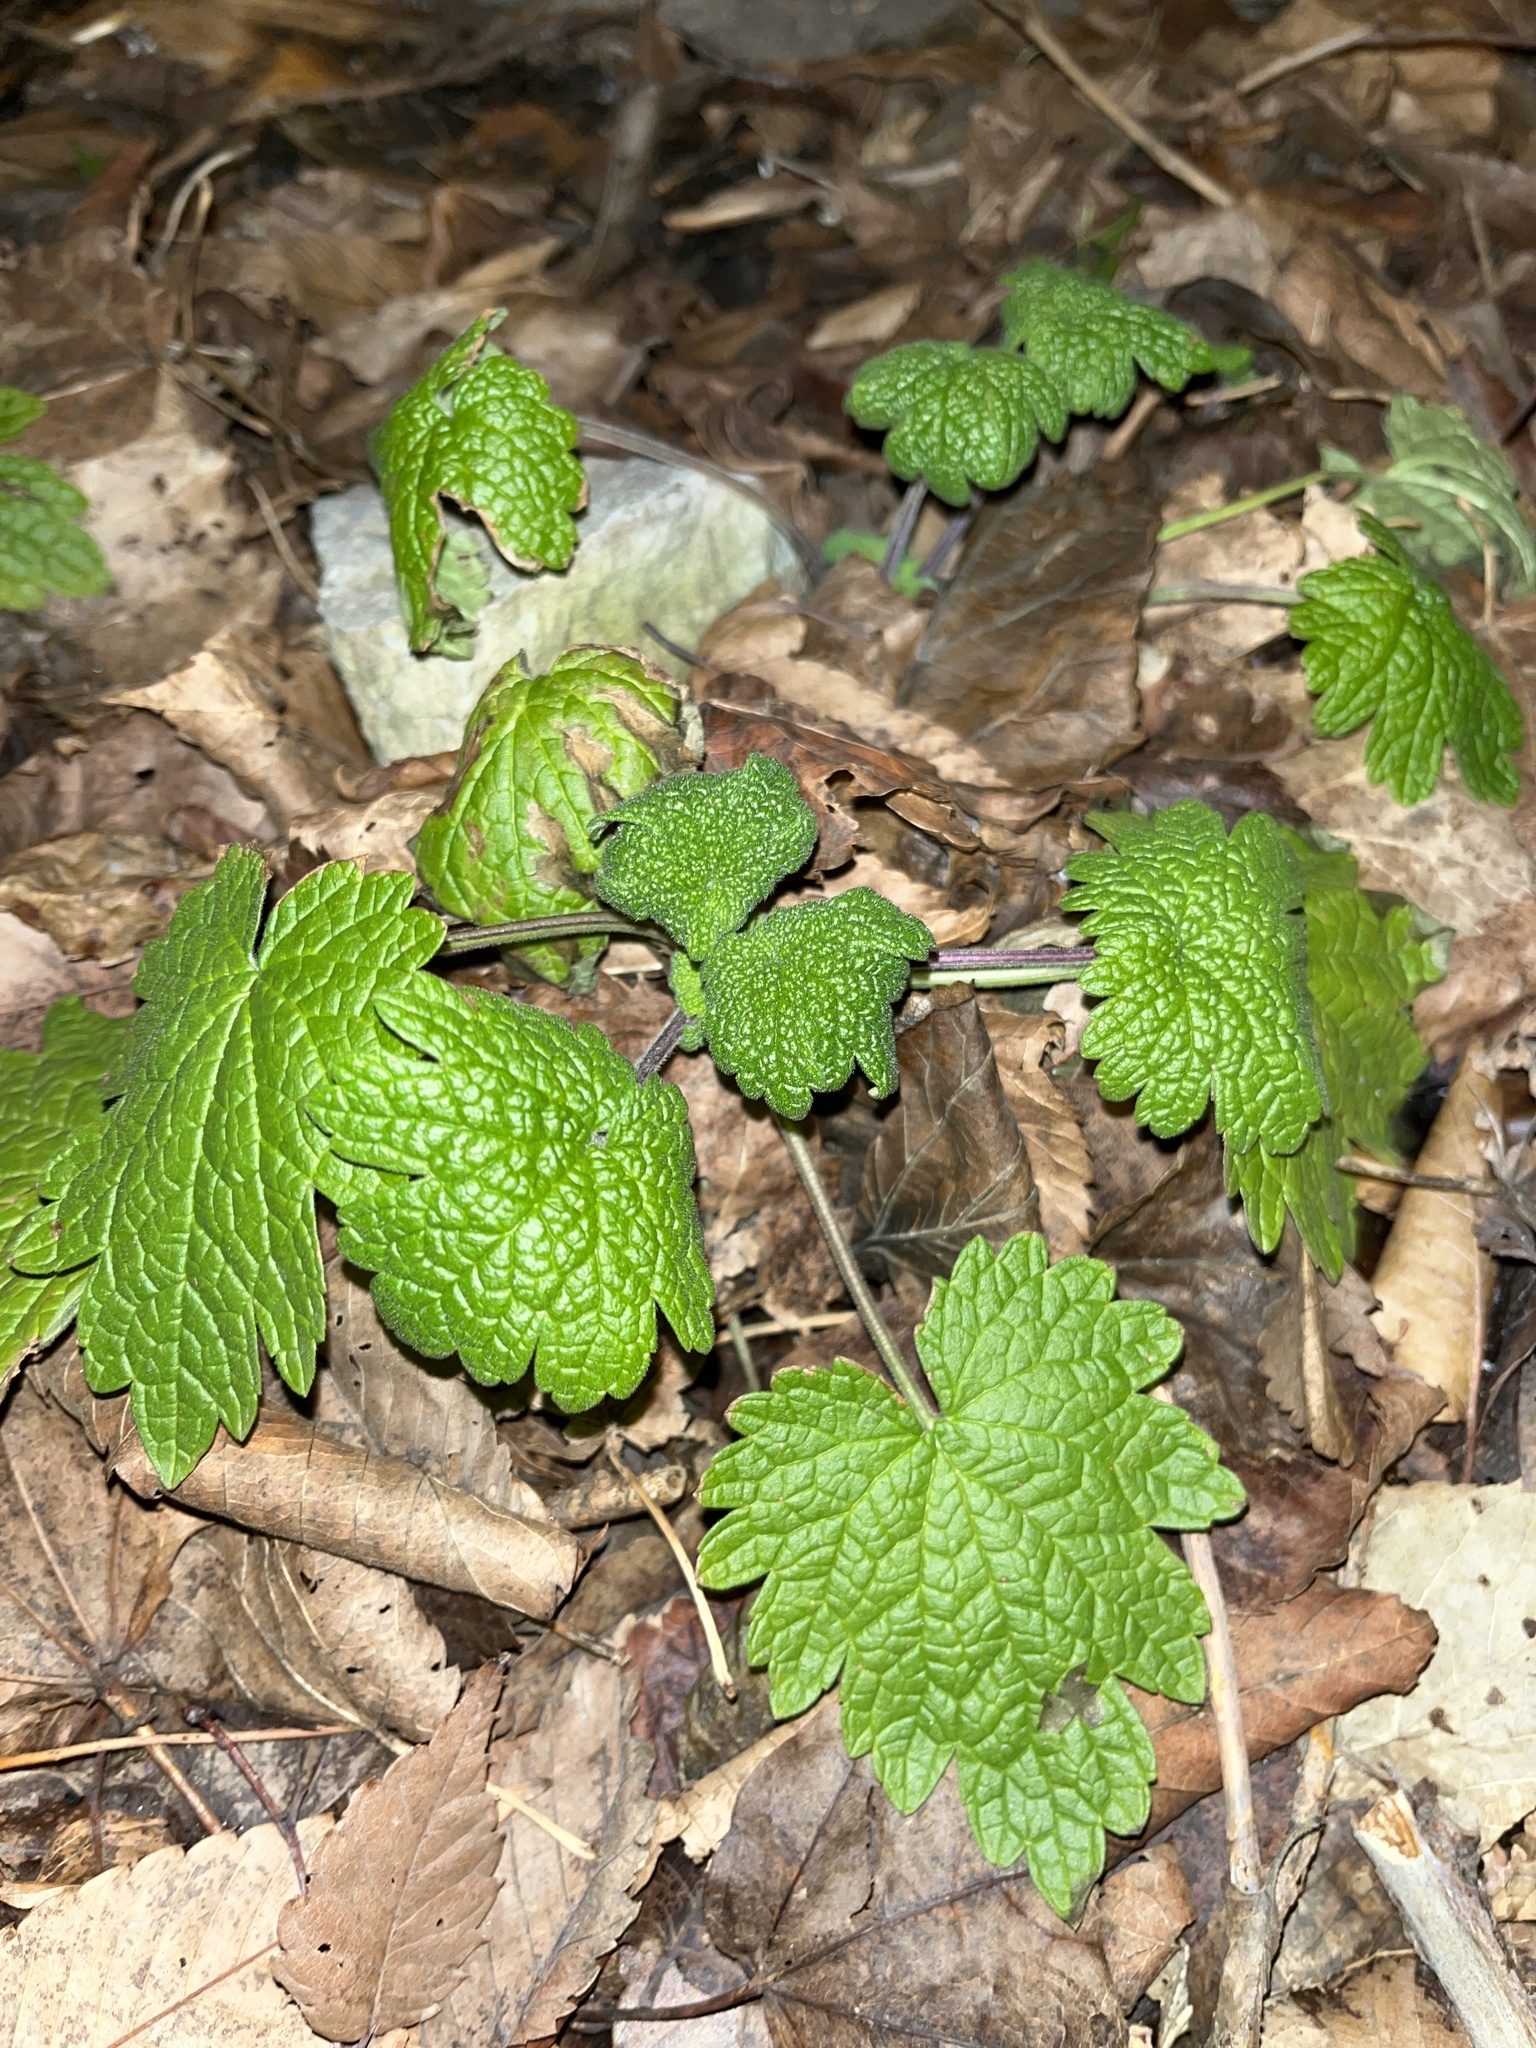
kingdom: Plantae
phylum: Tracheophyta
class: Magnoliopsida
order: Lamiales
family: Lamiaceae
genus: Leonurus
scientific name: Leonurus cardiaca
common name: Motherwort
